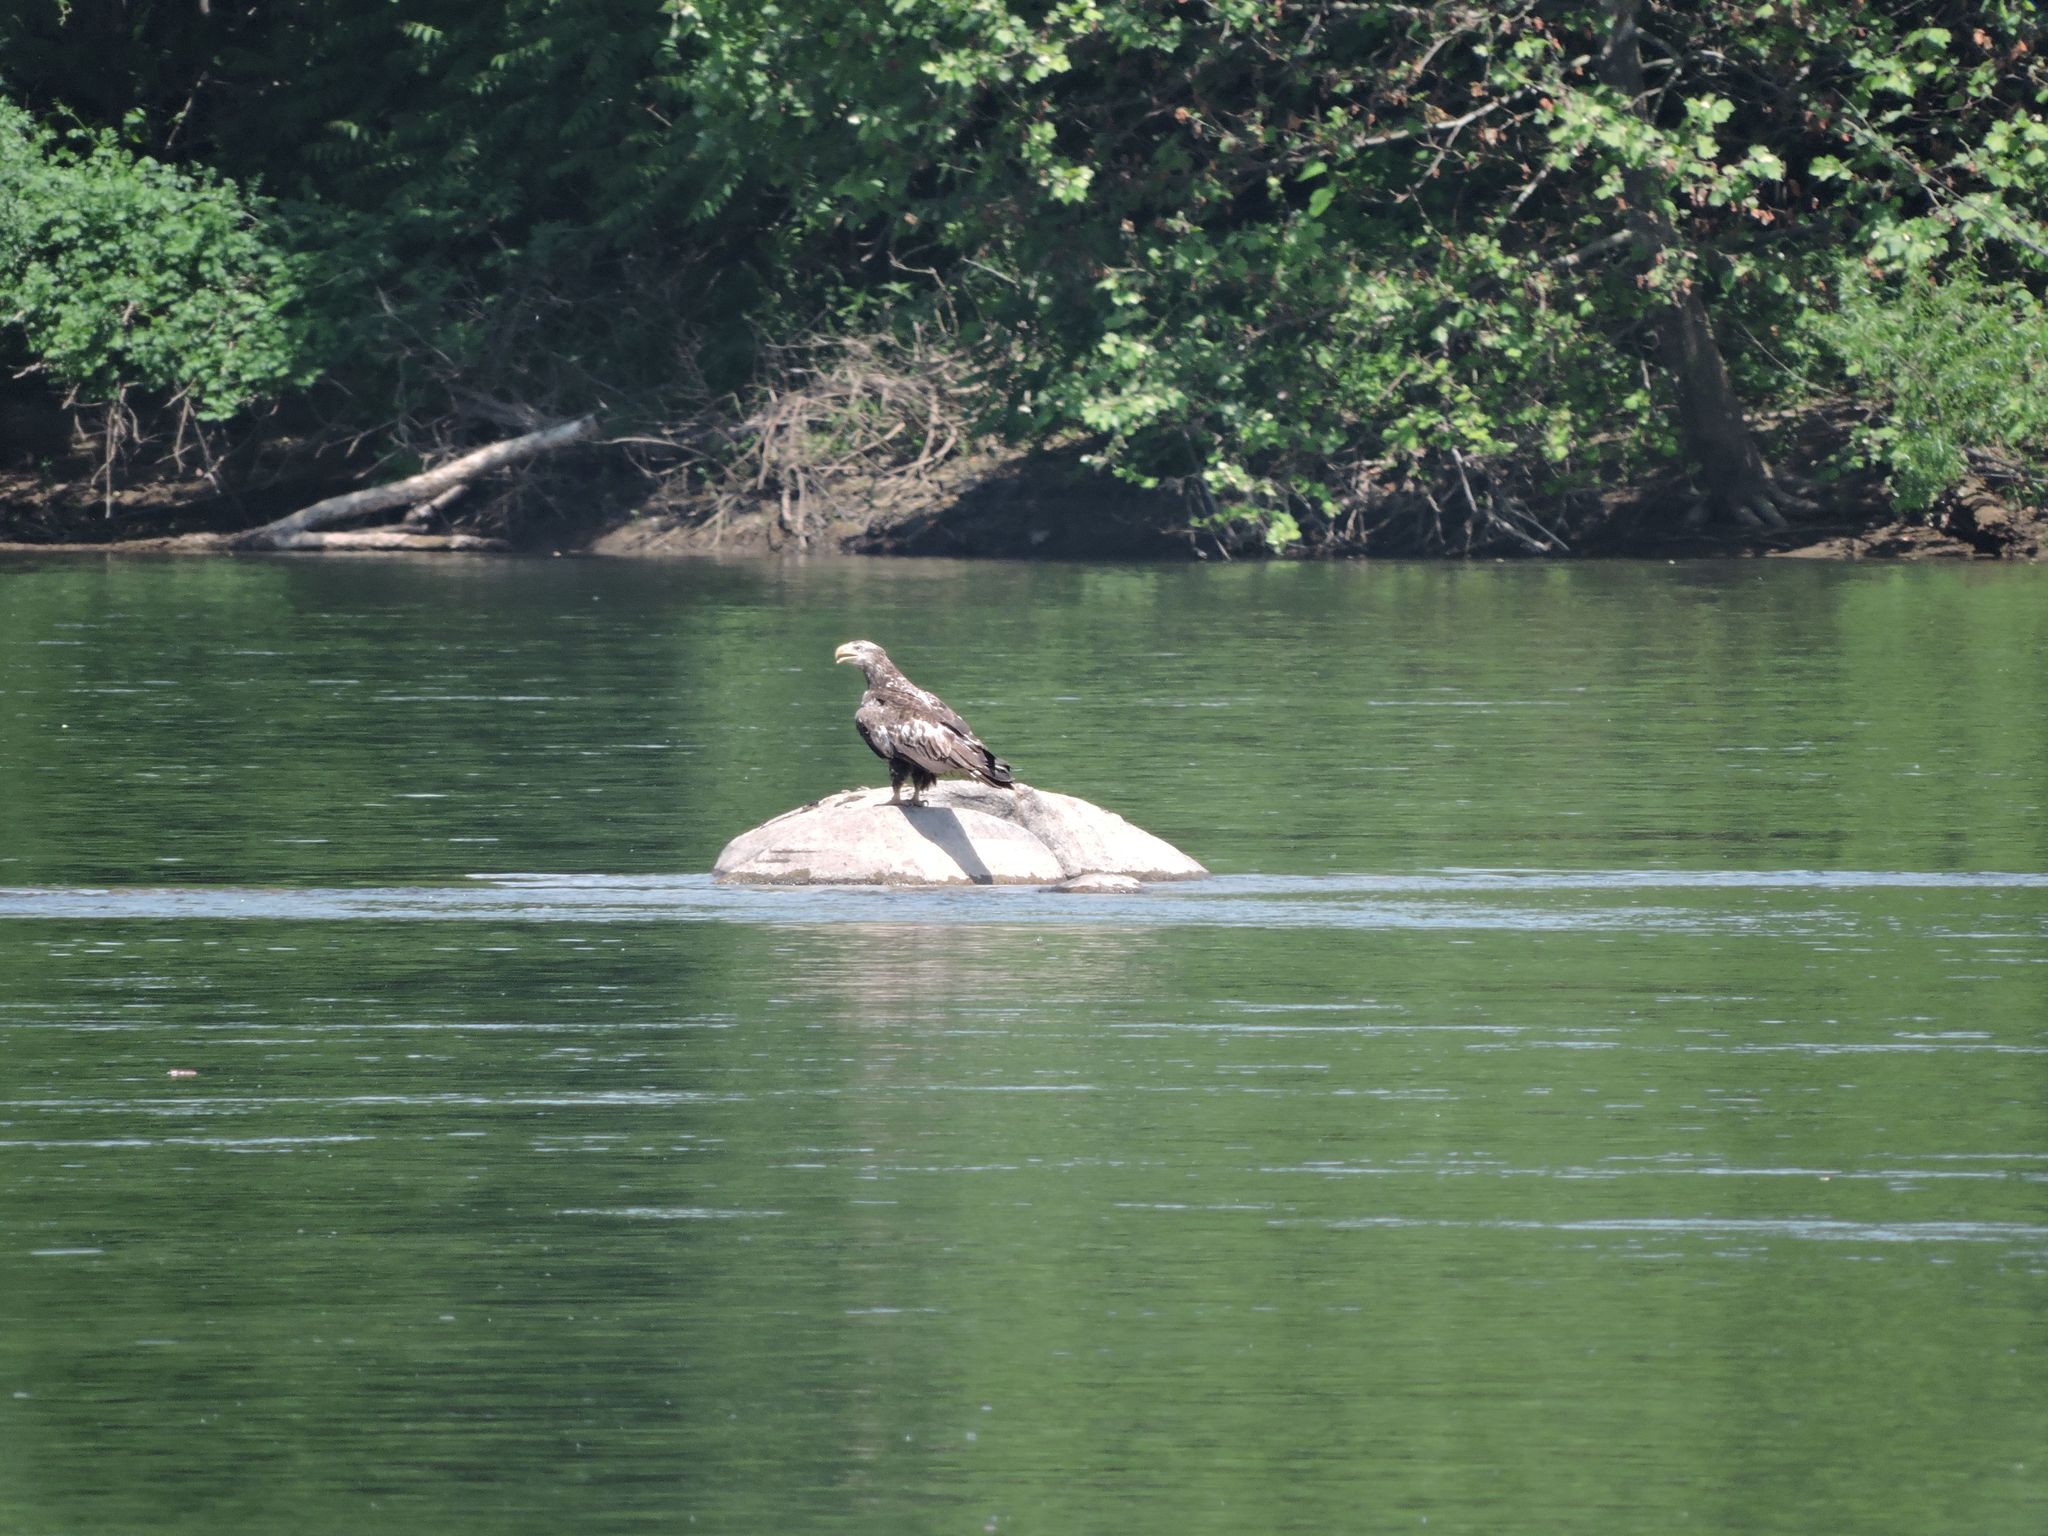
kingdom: Animalia
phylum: Chordata
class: Aves
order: Accipitriformes
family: Accipitridae
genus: Haliaeetus
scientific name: Haliaeetus leucocephalus
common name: Bald eagle
